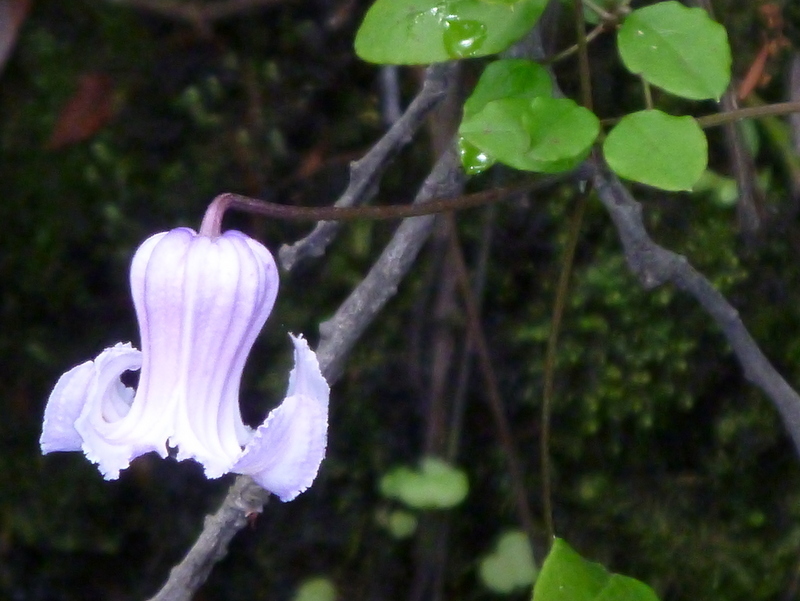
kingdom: Plantae
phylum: Tracheophyta
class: Magnoliopsida
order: Ranunculales
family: Ranunculaceae
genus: Clematis
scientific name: Clematis crispa
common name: Curly clematis
